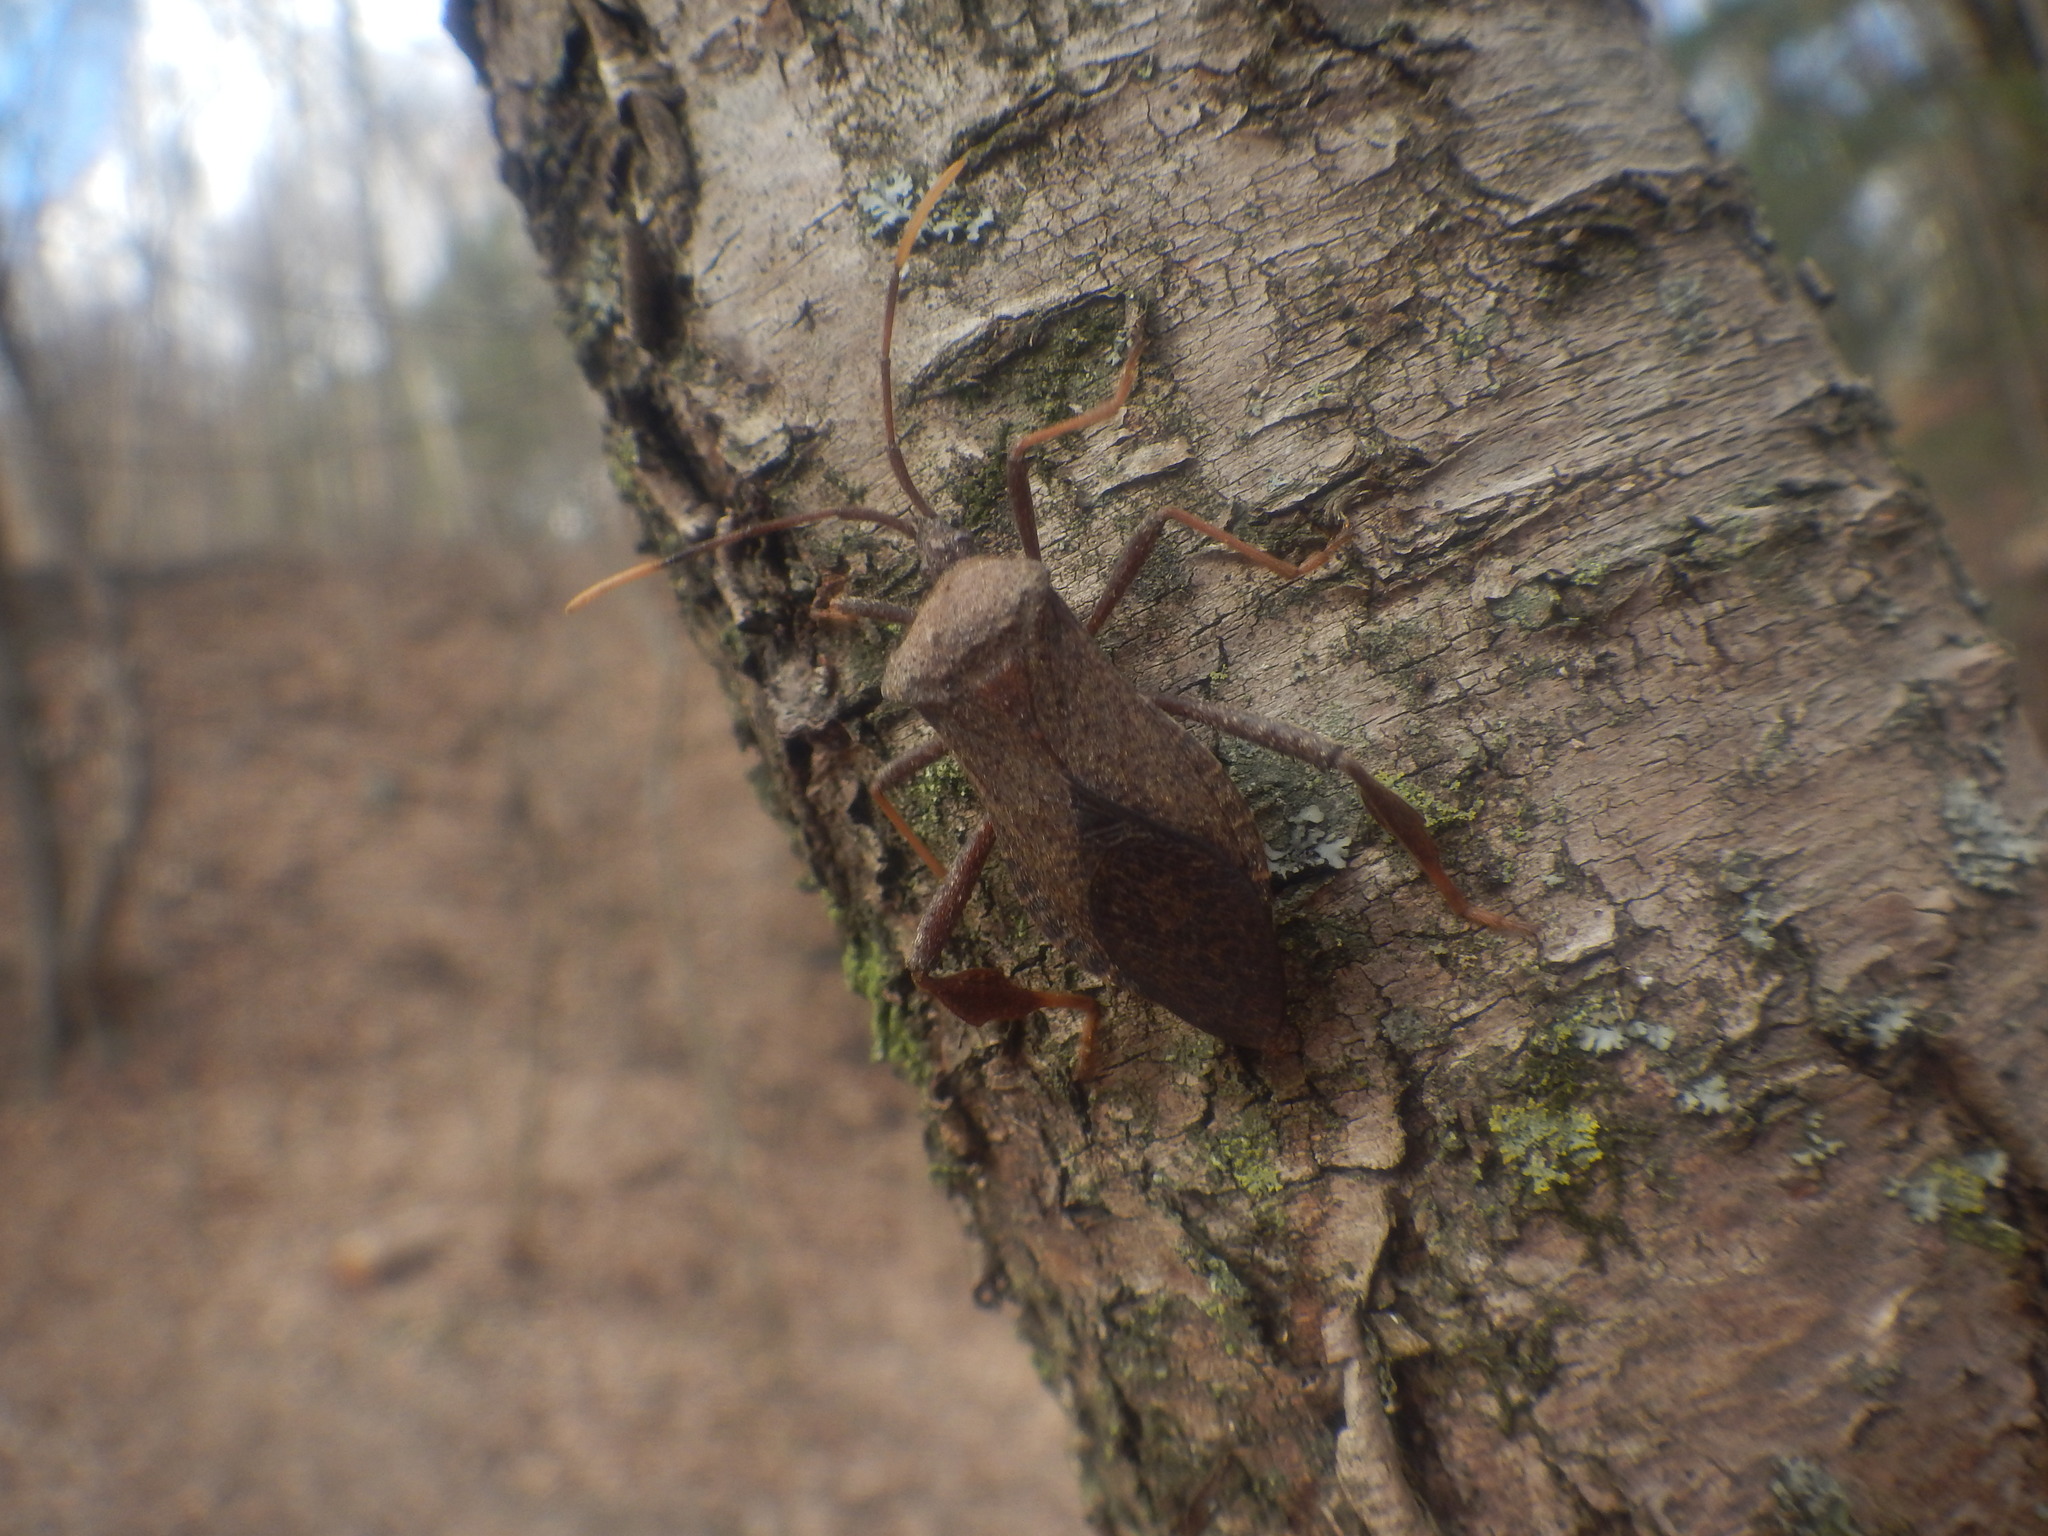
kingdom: Animalia
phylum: Arthropoda
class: Insecta
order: Hemiptera
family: Coreidae
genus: Acanthocephala
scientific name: Acanthocephala terminalis
